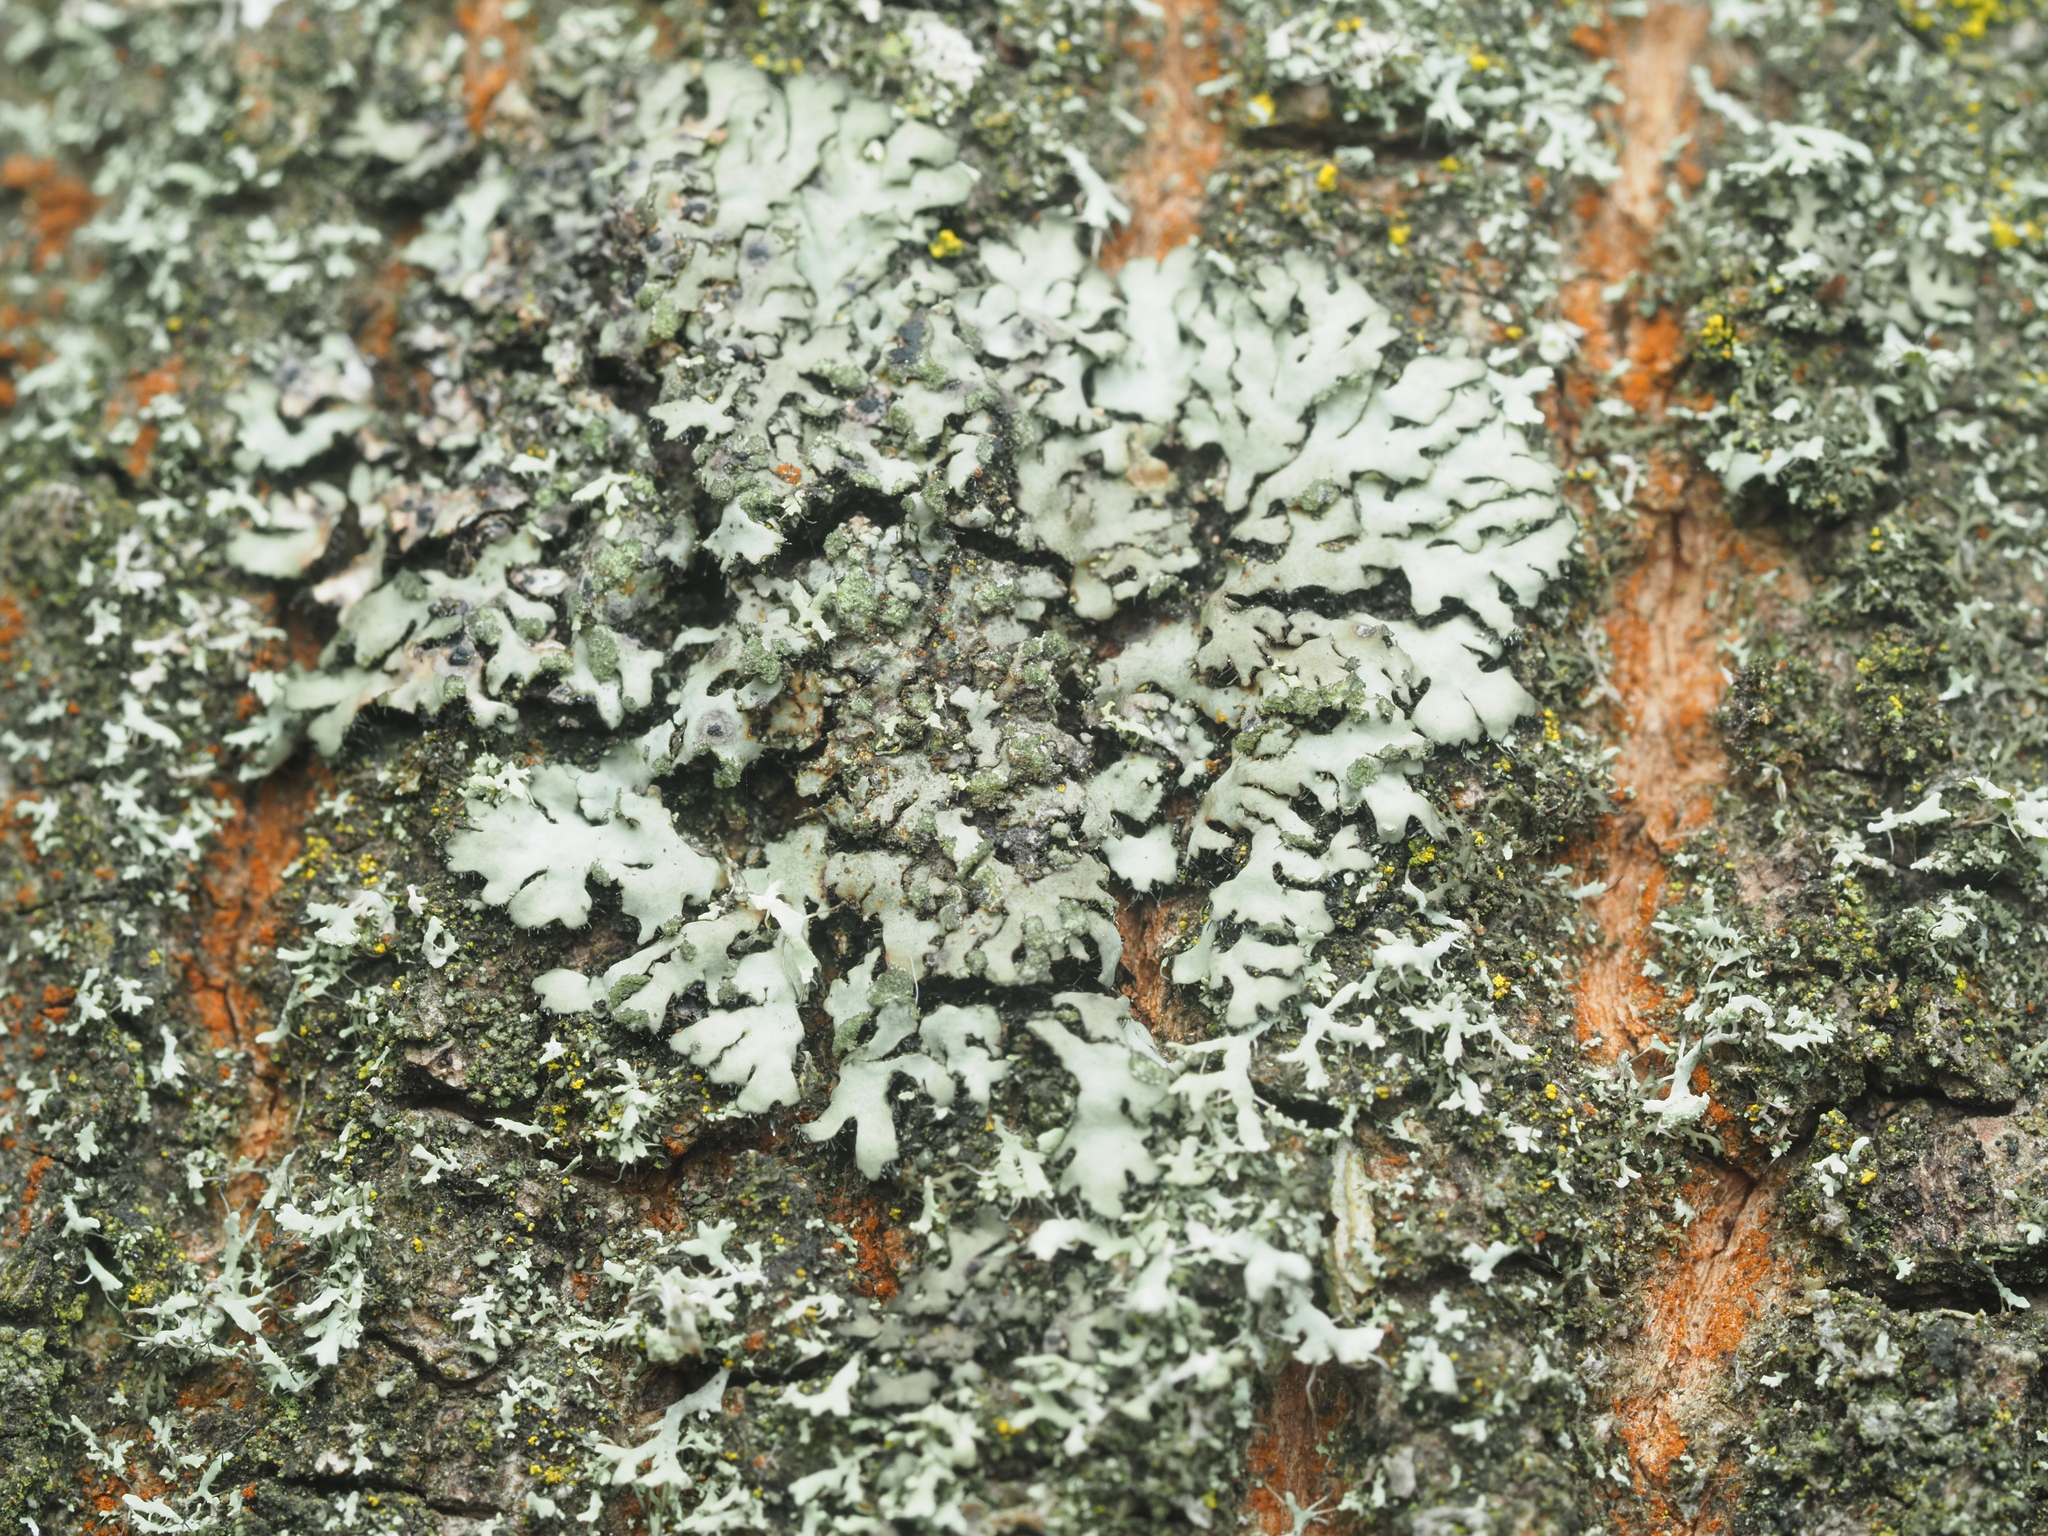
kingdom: Fungi
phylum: Ascomycota
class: Lecanoromycetes
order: Caliciales
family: Physciaceae
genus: Phaeophyscia
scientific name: Phaeophyscia orbicularis
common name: Mealy shadow lichen
